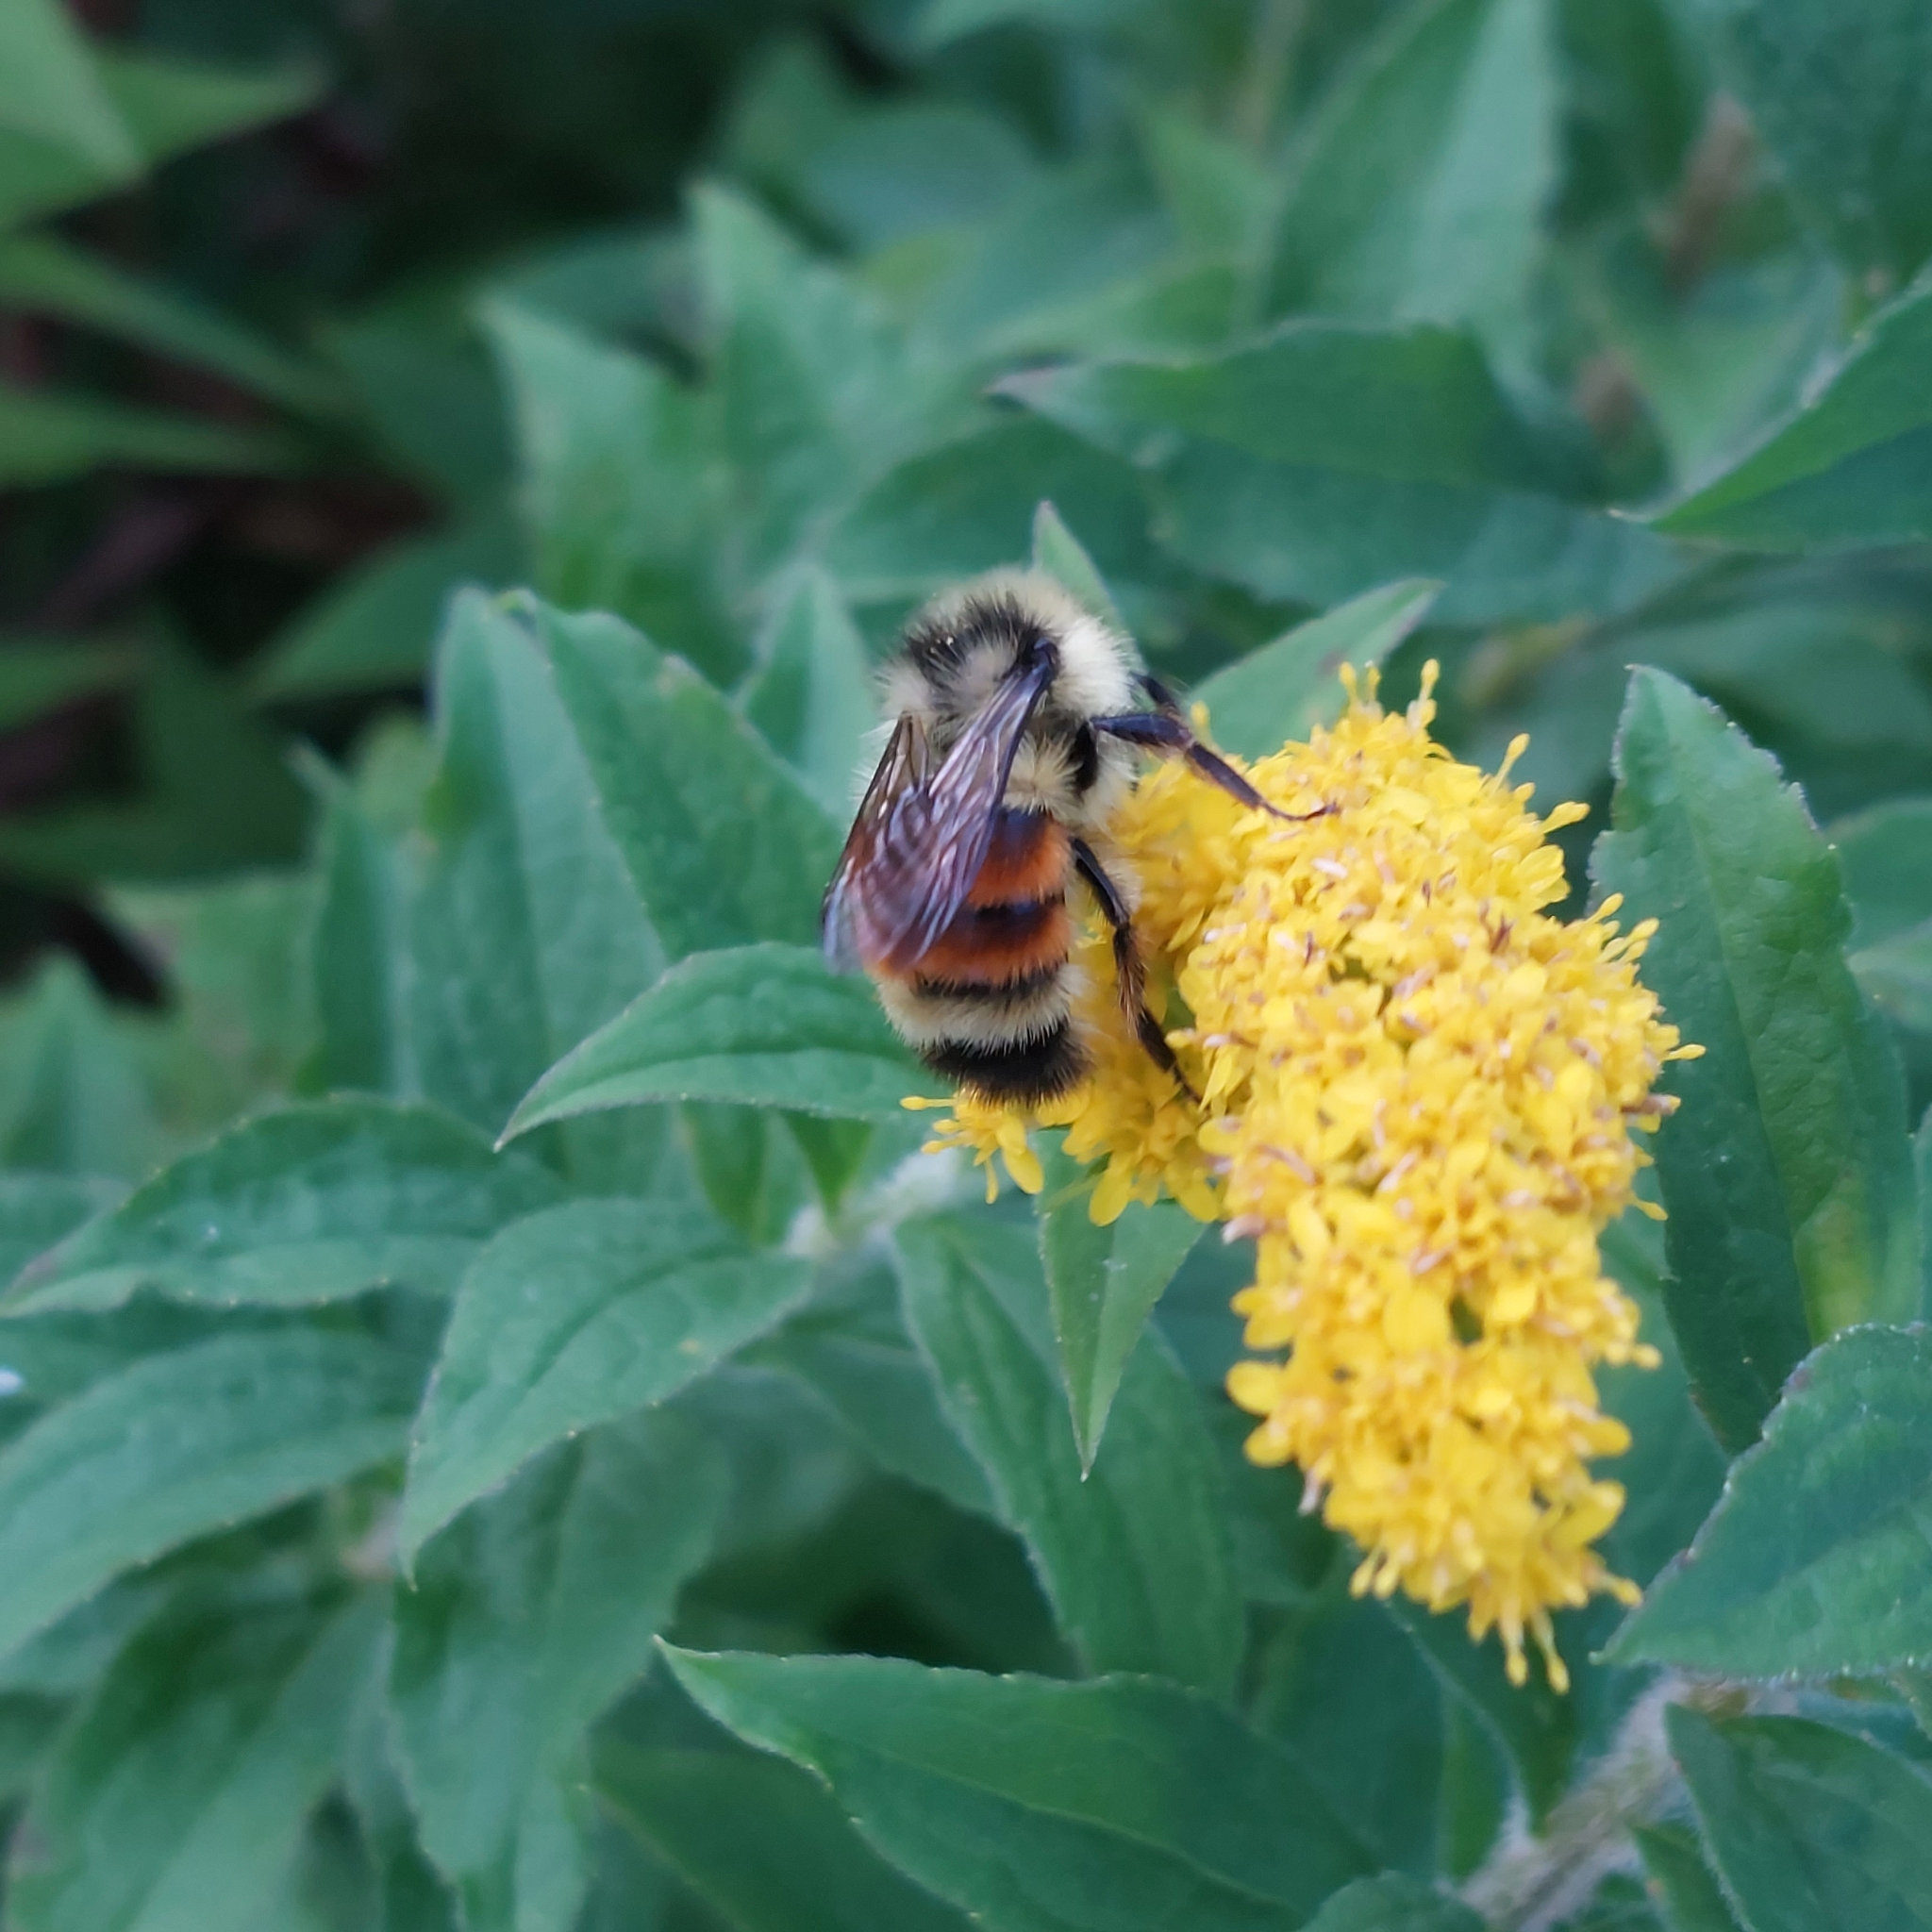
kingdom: Animalia
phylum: Arthropoda
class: Insecta
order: Hymenoptera
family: Apidae
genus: Bombus
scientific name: Bombus ternarius
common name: Tri-colored bumble bee
